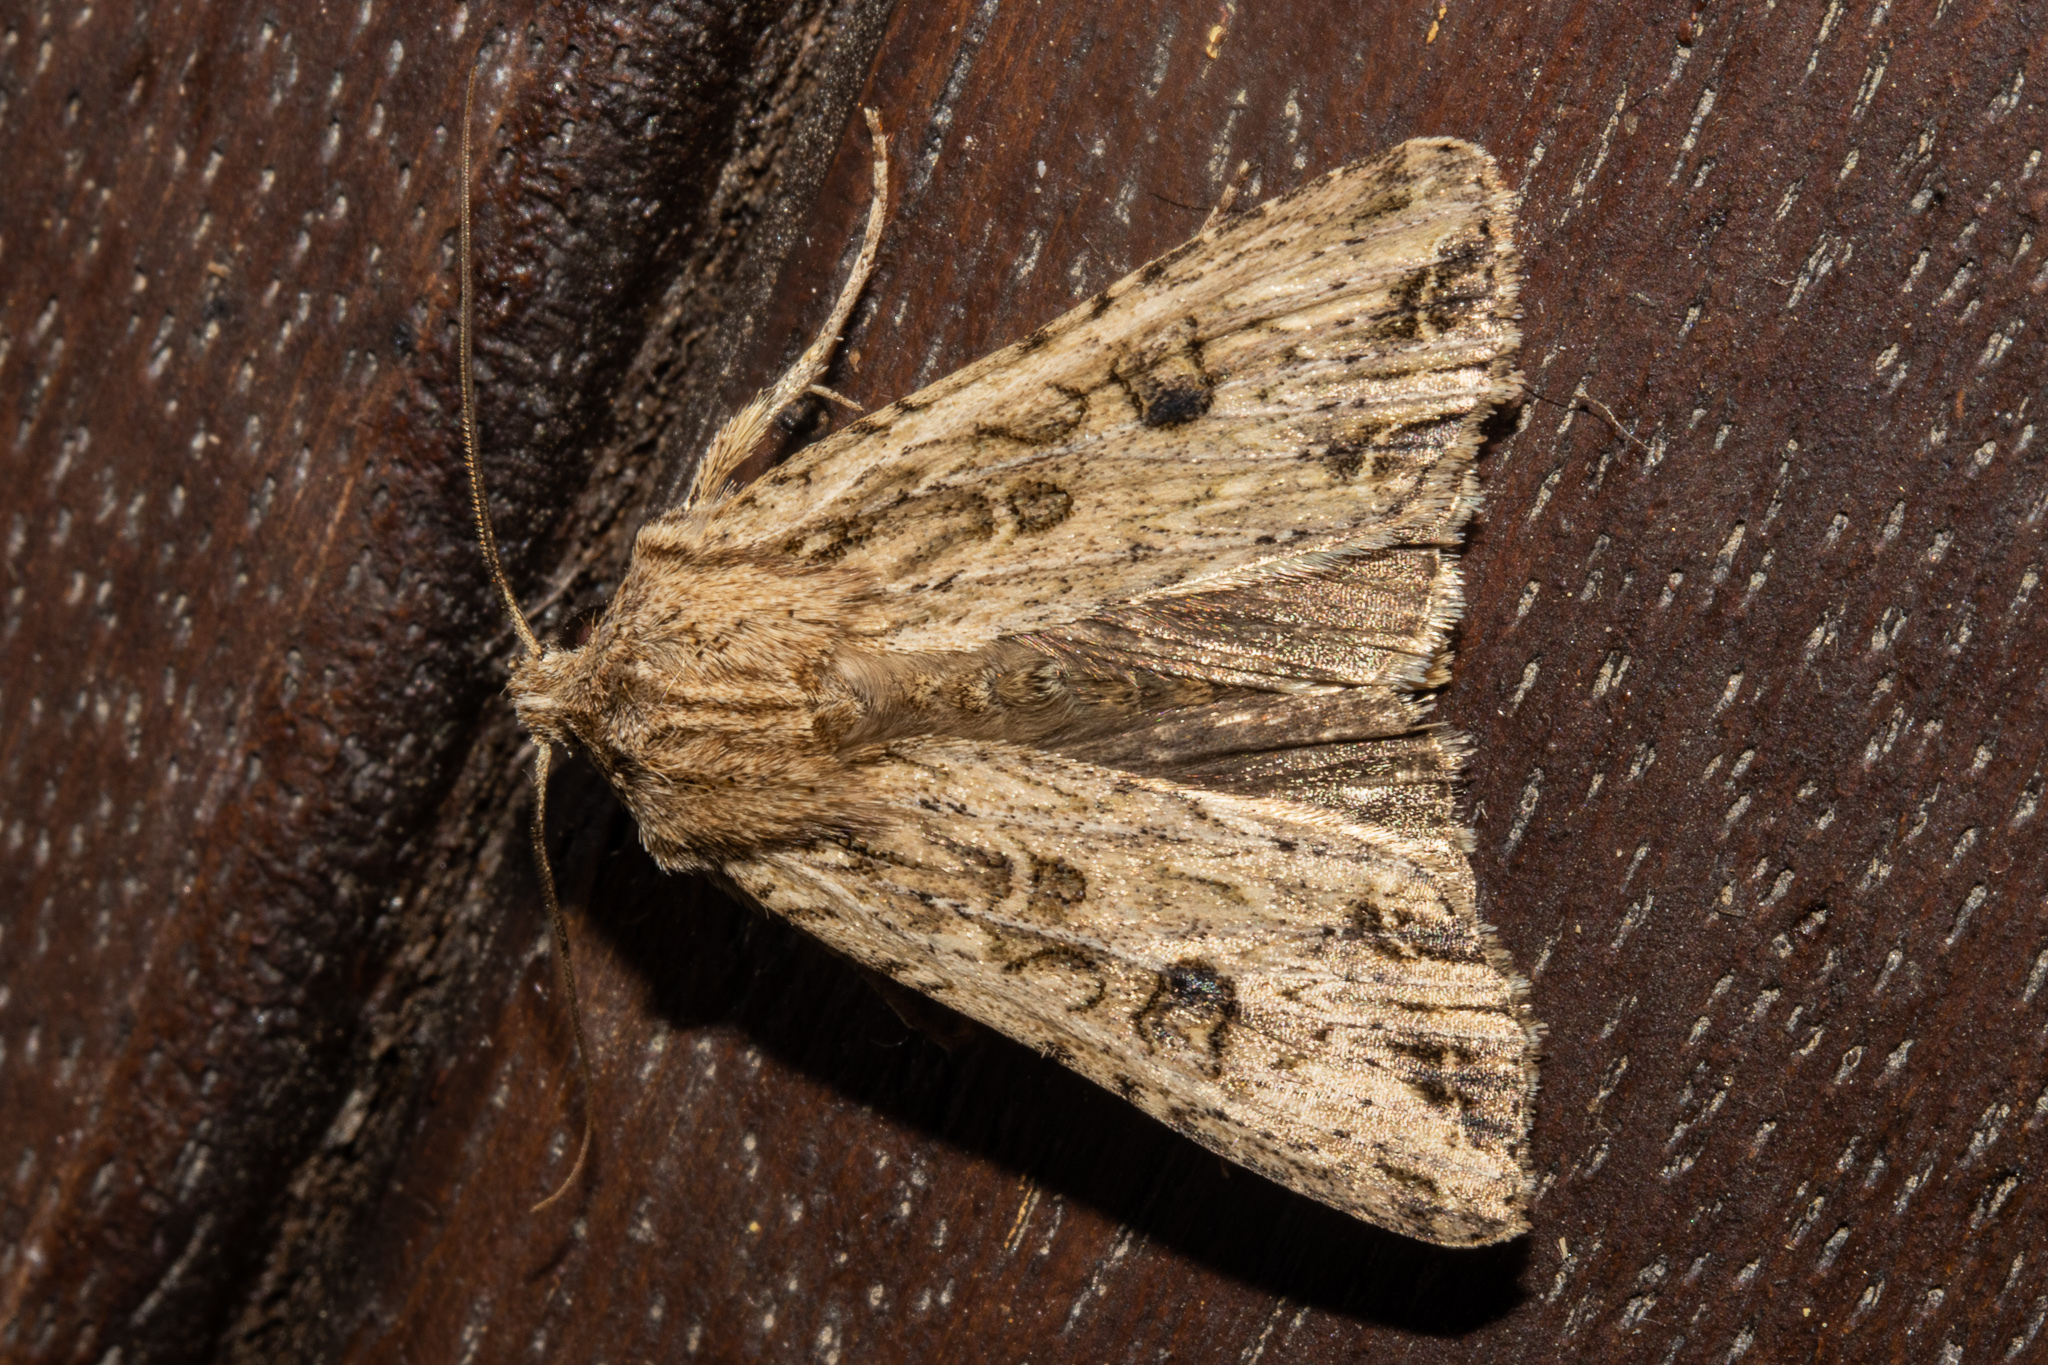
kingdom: Animalia
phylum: Arthropoda
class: Insecta
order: Lepidoptera
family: Noctuidae
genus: Ichneutica
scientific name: Ichneutica lignana
